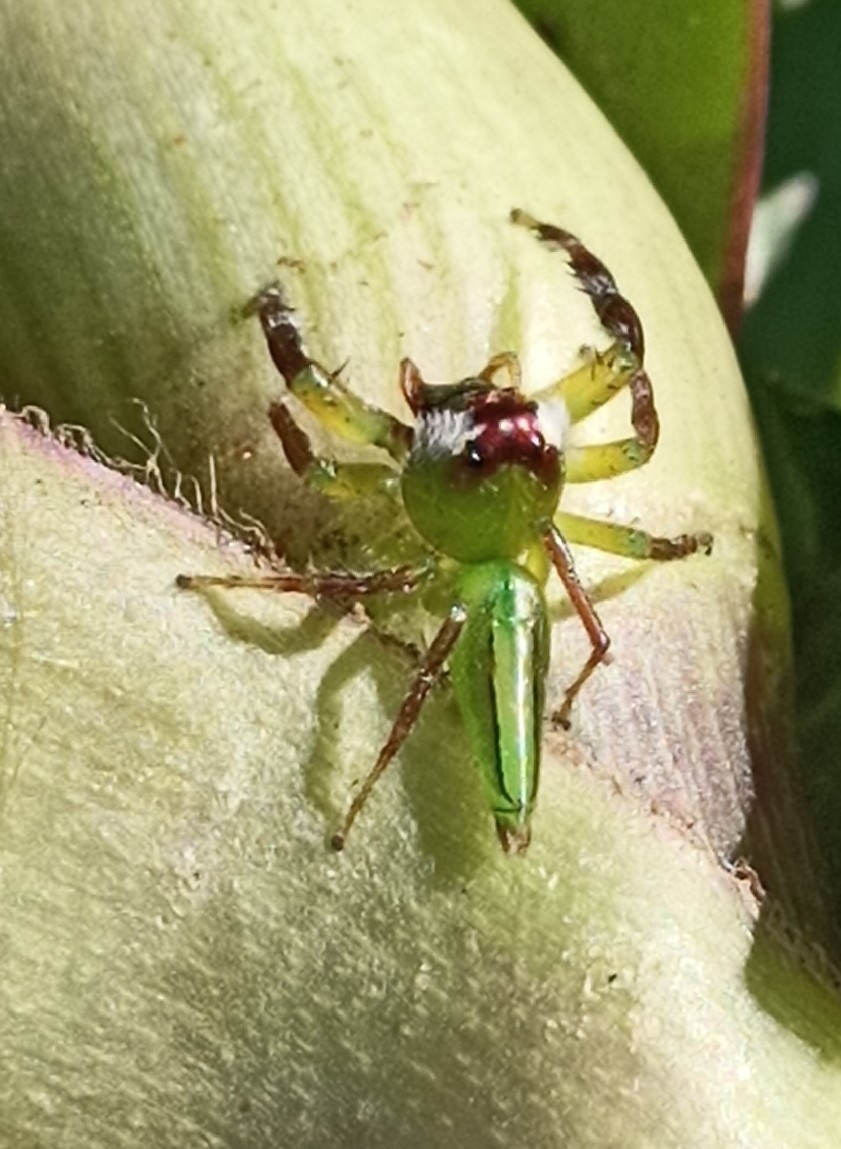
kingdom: Animalia
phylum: Arthropoda
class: Arachnida
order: Araneae
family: Salticidae
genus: Mopsus
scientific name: Mopsus mormon
